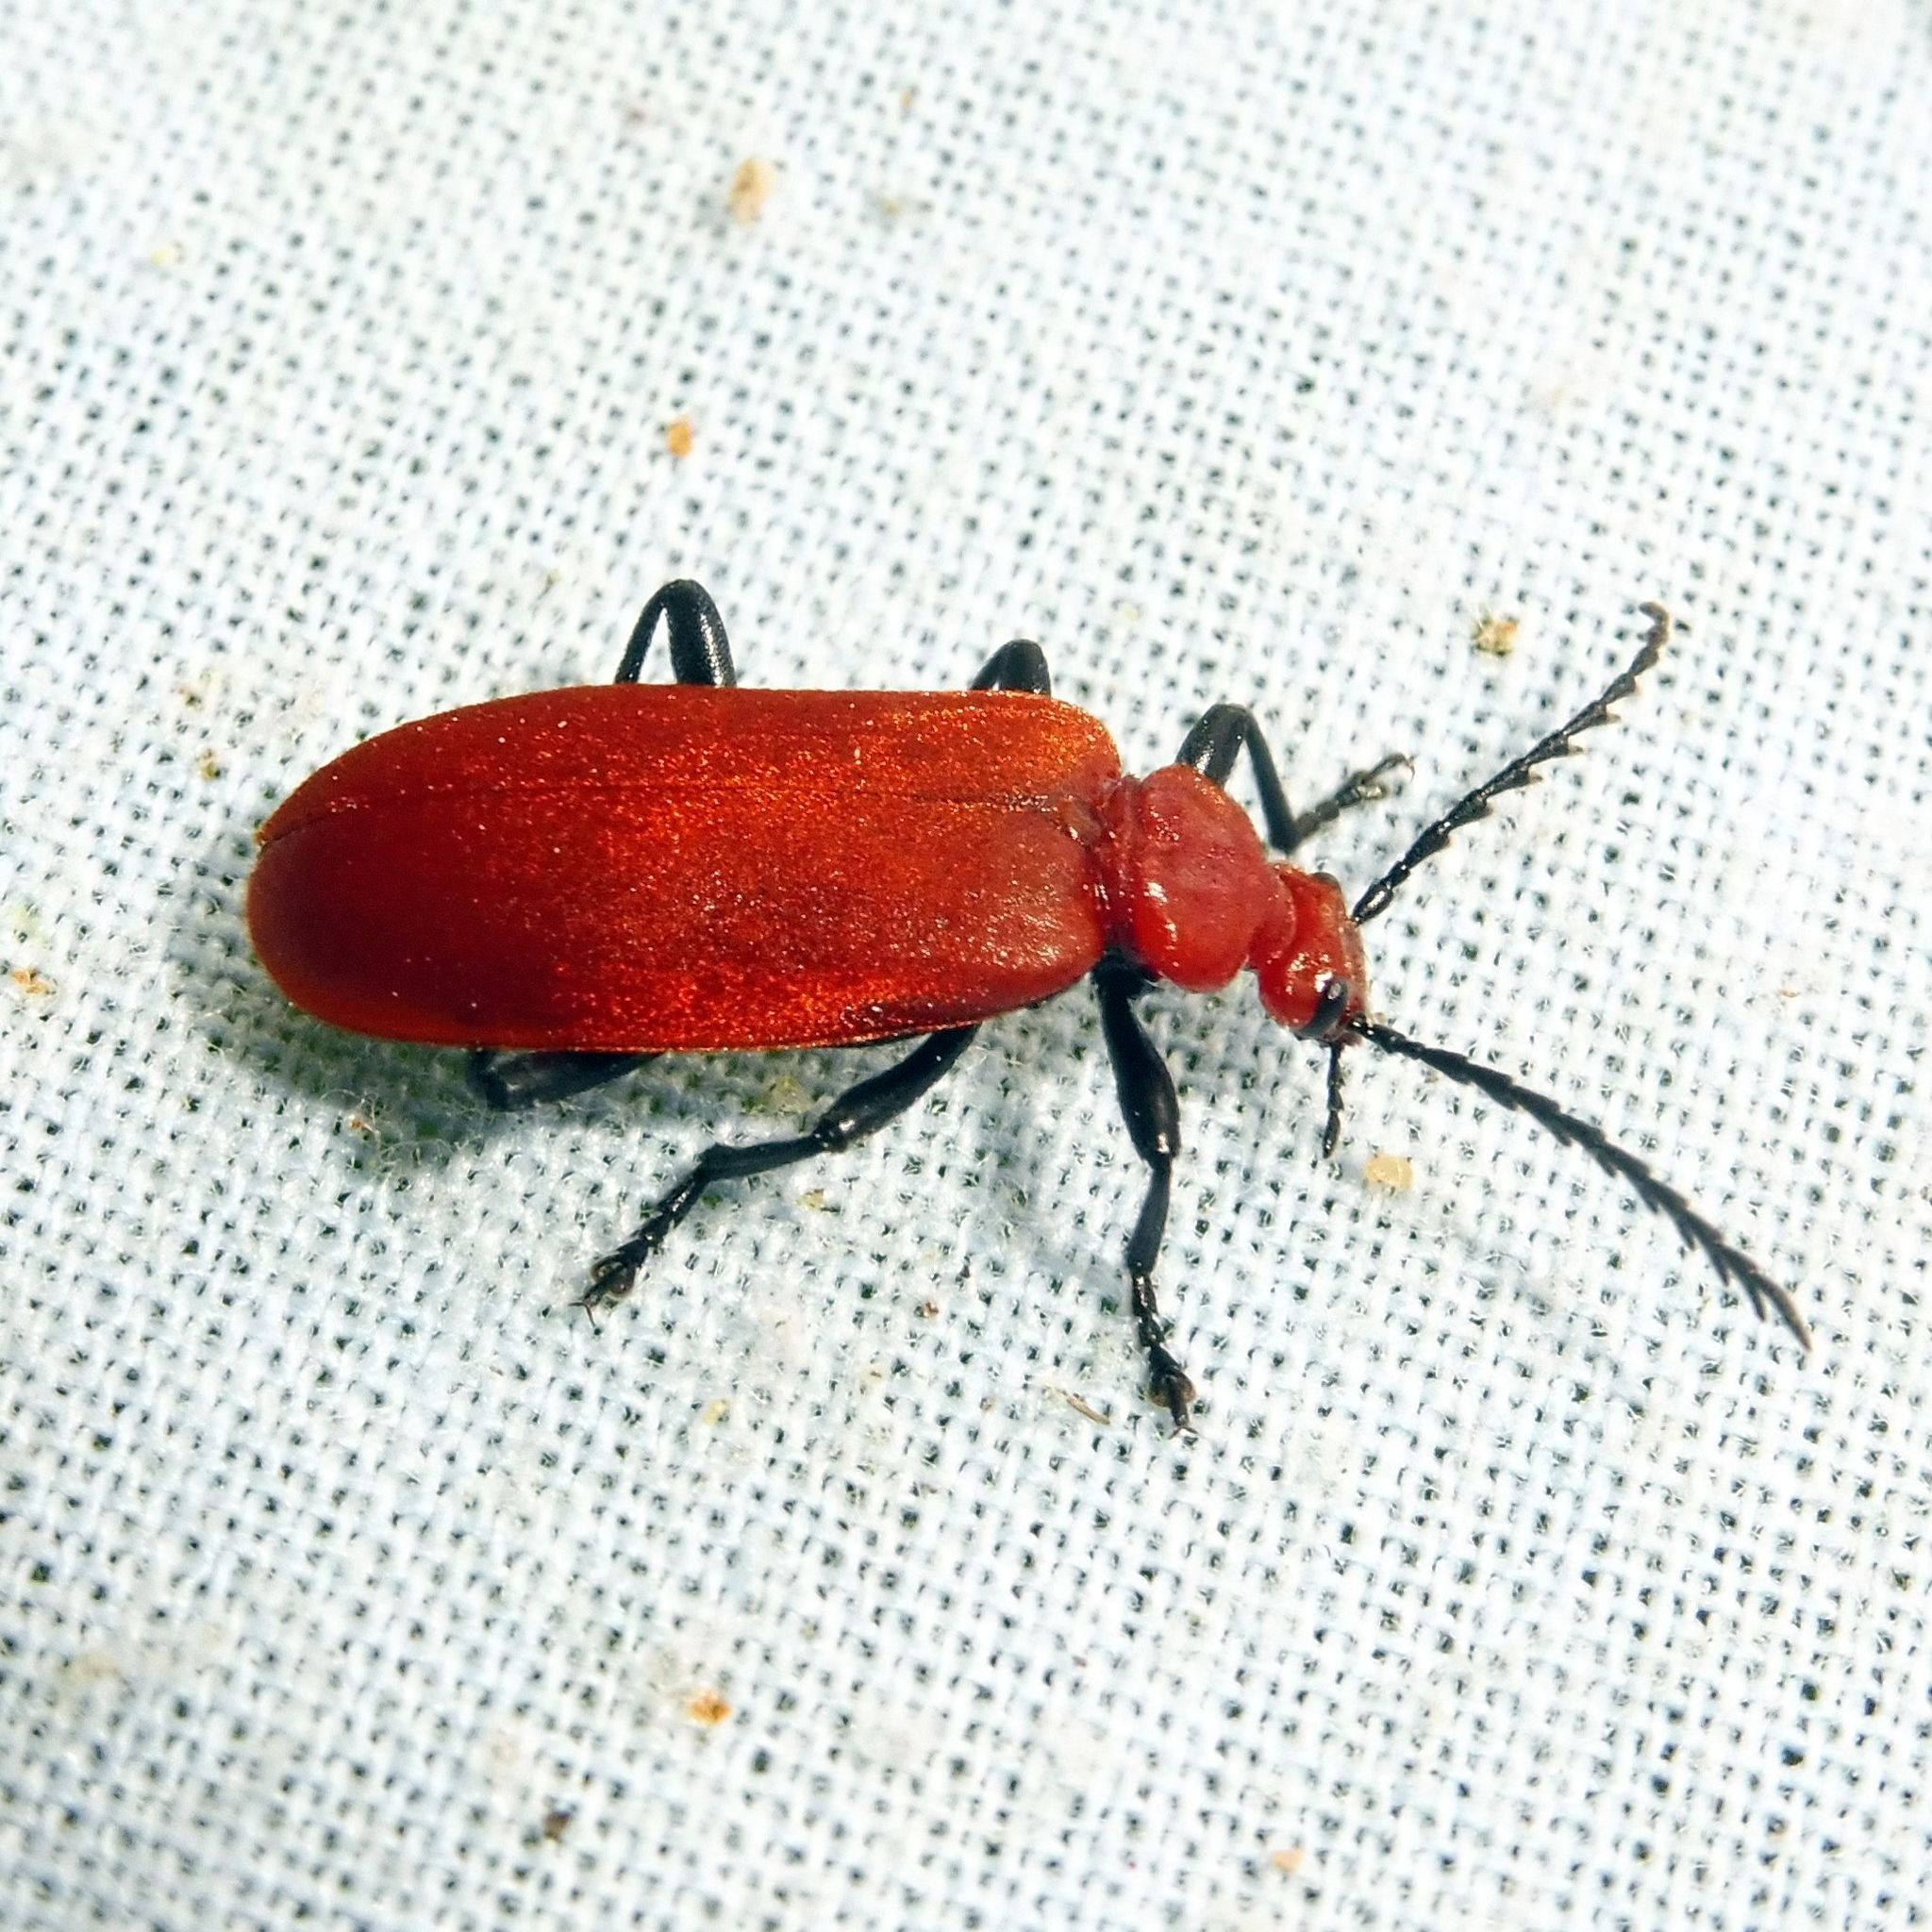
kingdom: Animalia
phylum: Arthropoda
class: Insecta
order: Coleoptera
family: Pyrochroidae
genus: Pyrochroa
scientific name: Pyrochroa serraticornis
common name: Red-headed cardinal beetle
